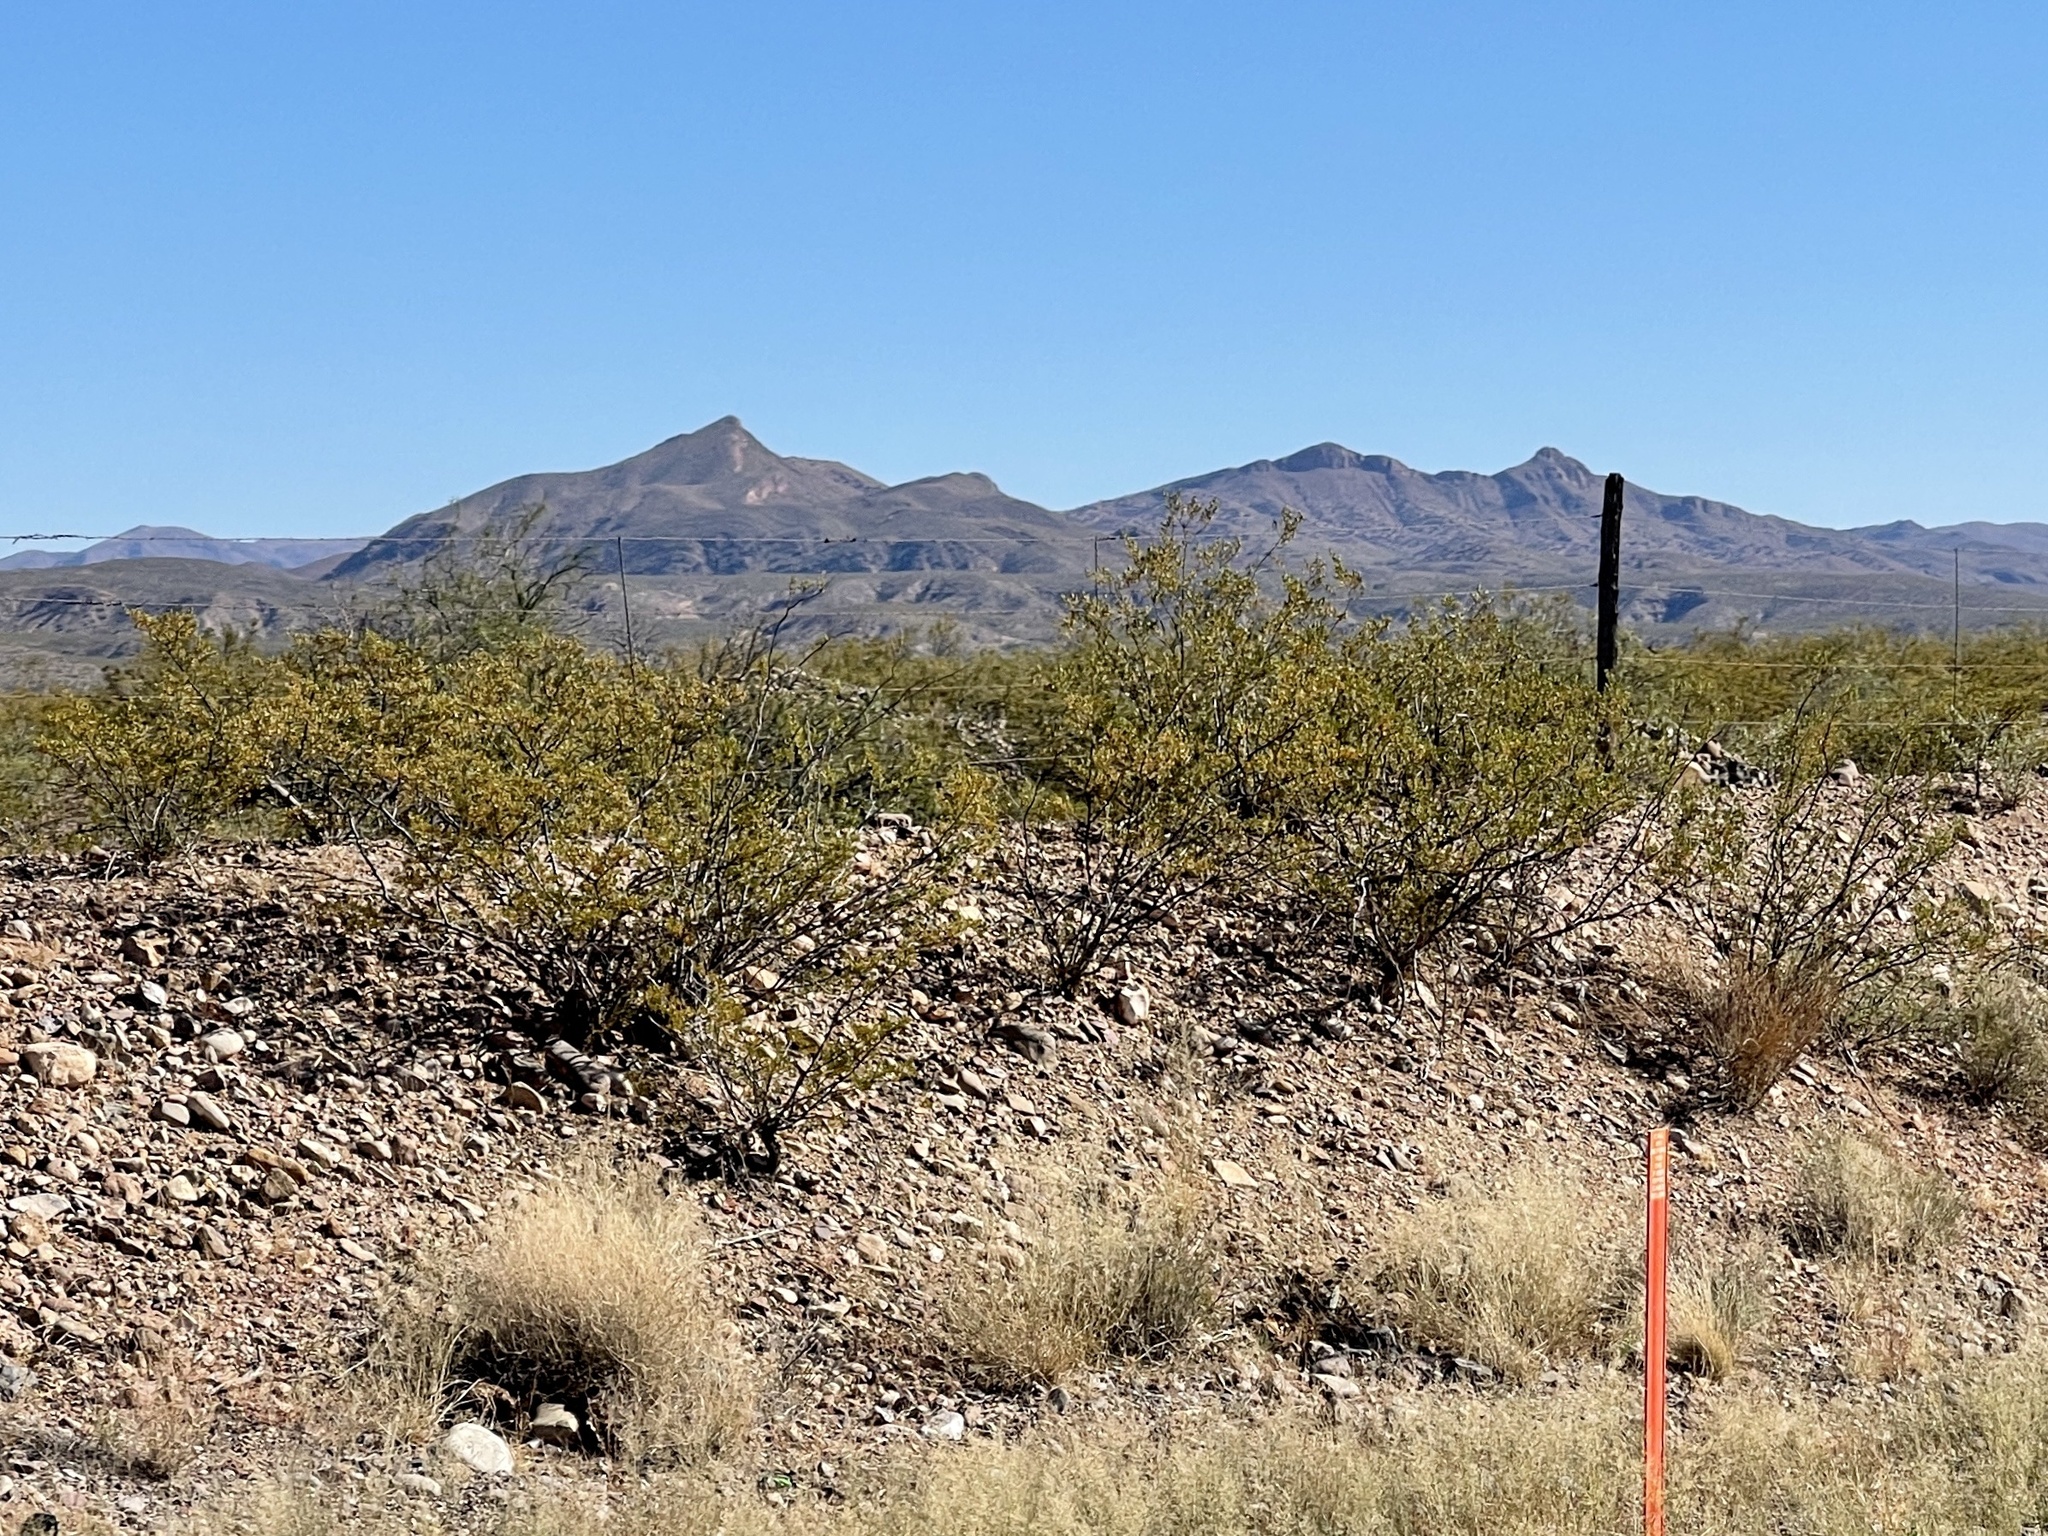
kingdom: Plantae
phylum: Tracheophyta
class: Magnoliopsida
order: Zygophyllales
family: Zygophyllaceae
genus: Larrea
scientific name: Larrea tridentata
